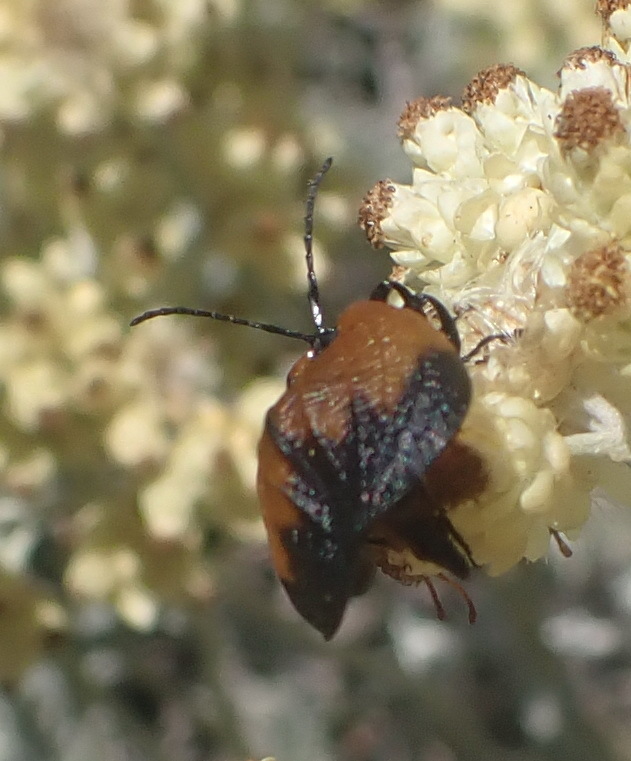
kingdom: Animalia
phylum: Arthropoda
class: Insecta
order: Coleoptera
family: Lycidae
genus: Lycus
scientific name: Lycus
